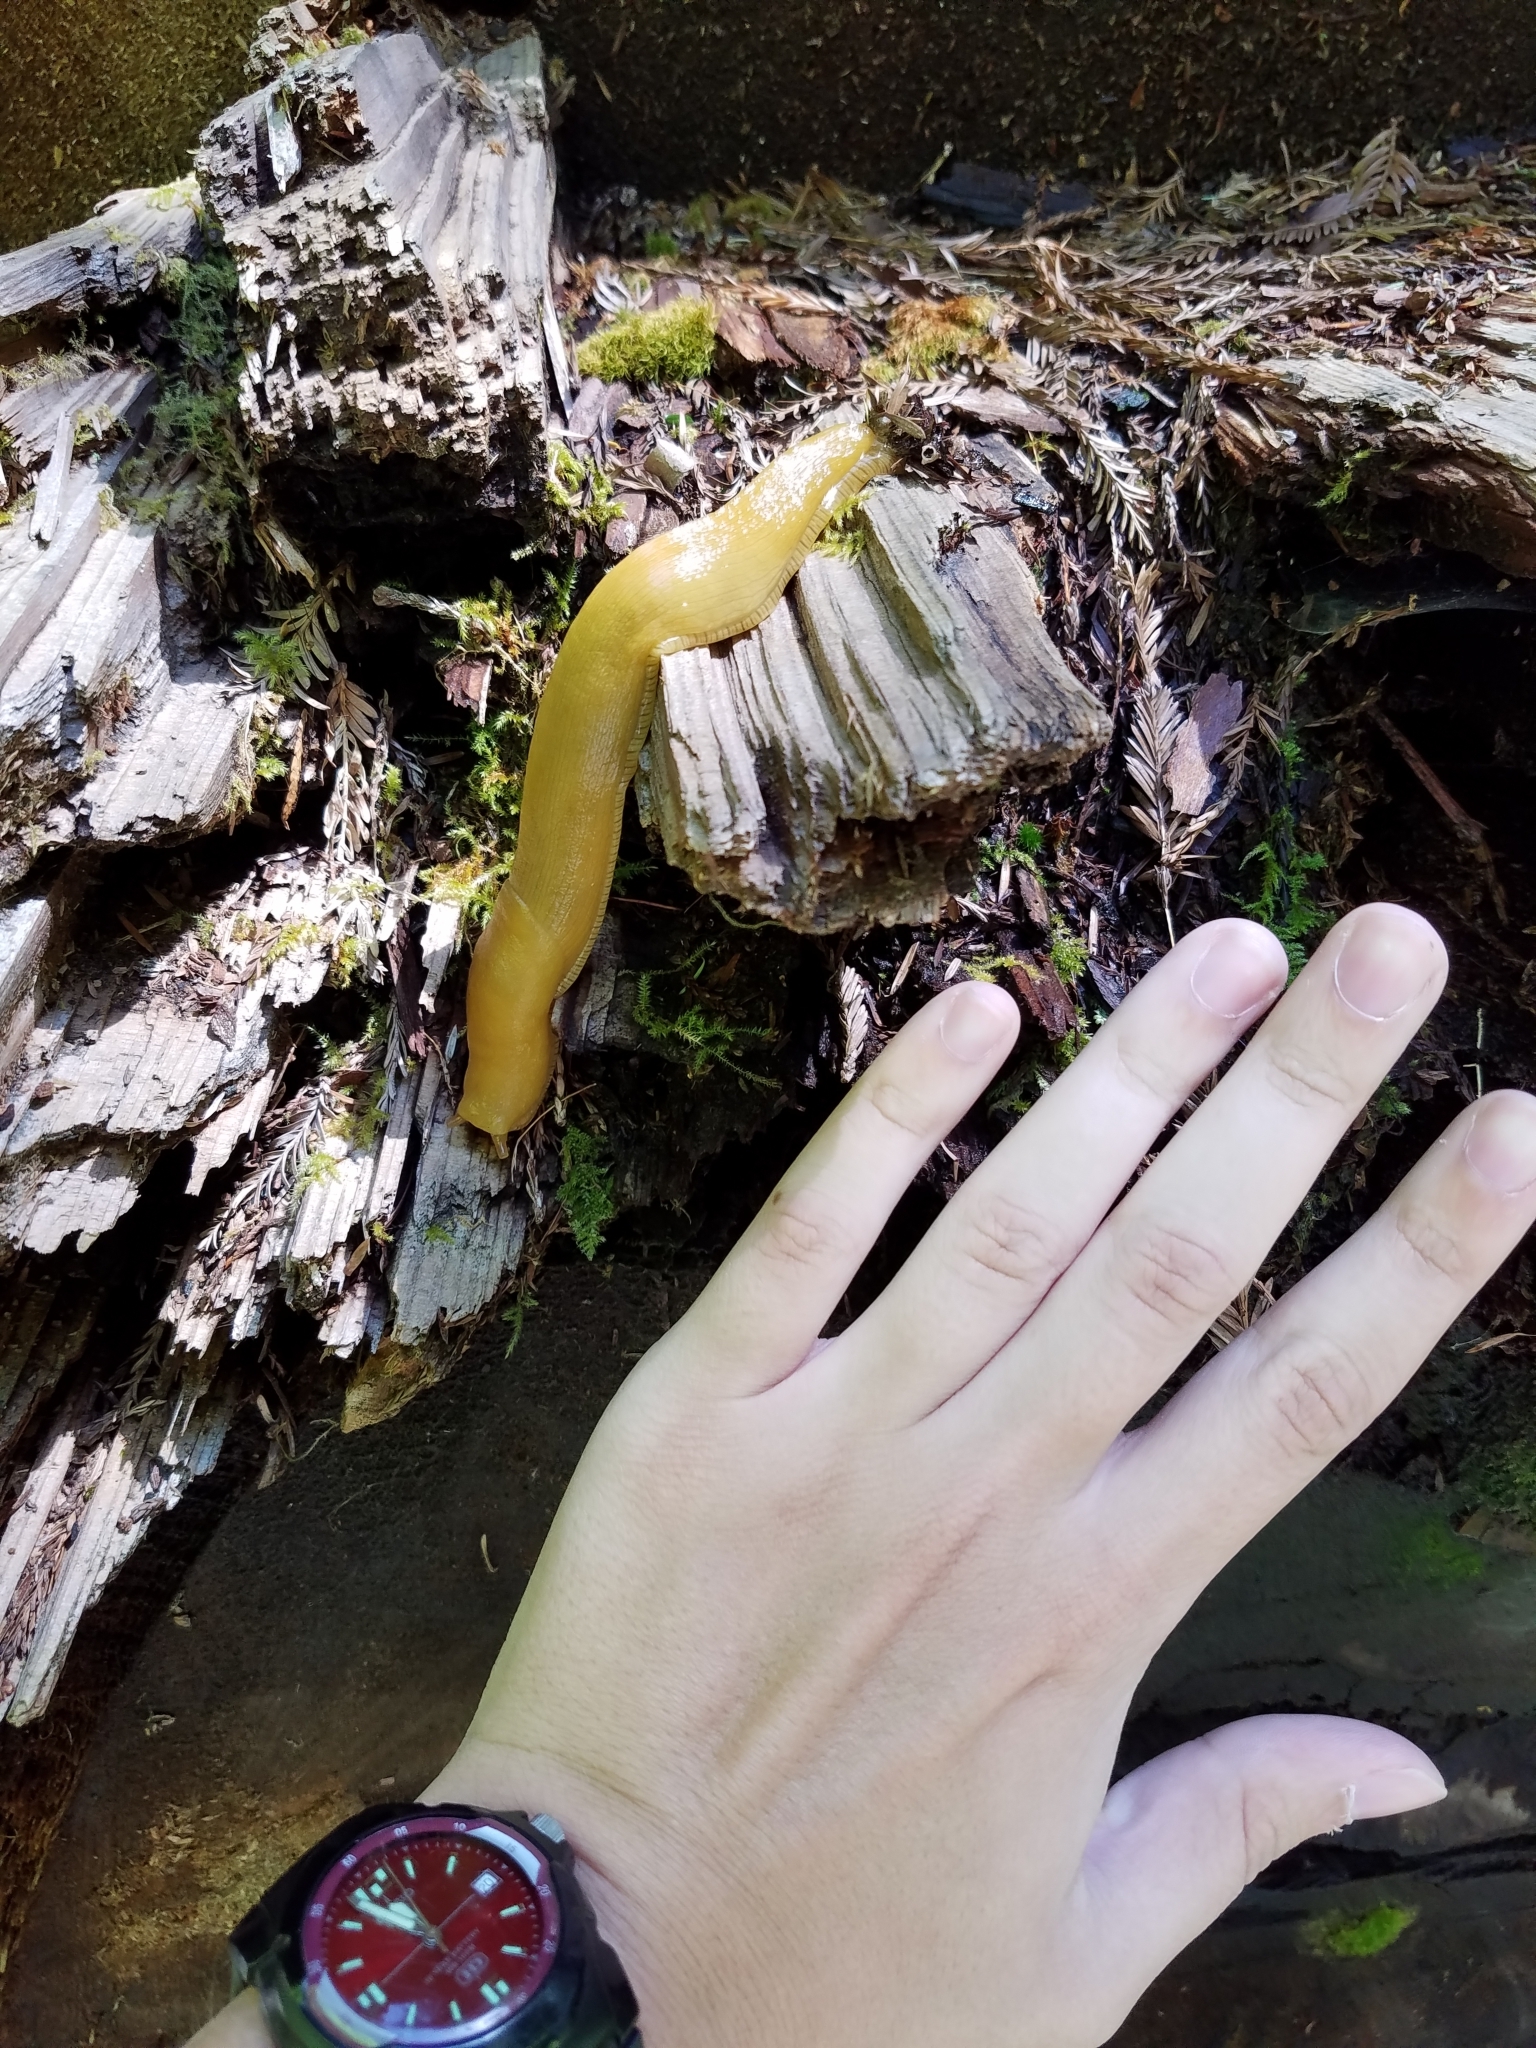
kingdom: Animalia
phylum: Mollusca
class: Gastropoda
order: Stylommatophora
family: Ariolimacidae
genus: Ariolimax
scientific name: Ariolimax columbianus
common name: Pacific banana slug
